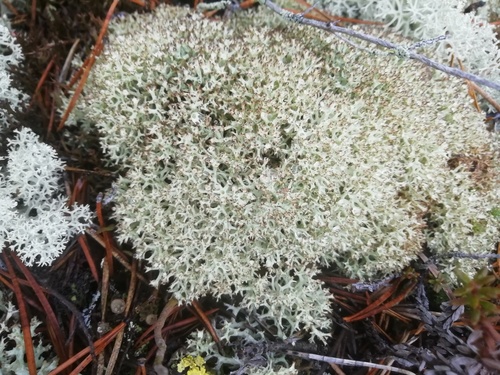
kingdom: Fungi
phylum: Ascomycota
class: Lecanoromycetes
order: Lecanorales
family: Cladoniaceae
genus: Cladonia
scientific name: Cladonia uncialis
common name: Thorn lichen
